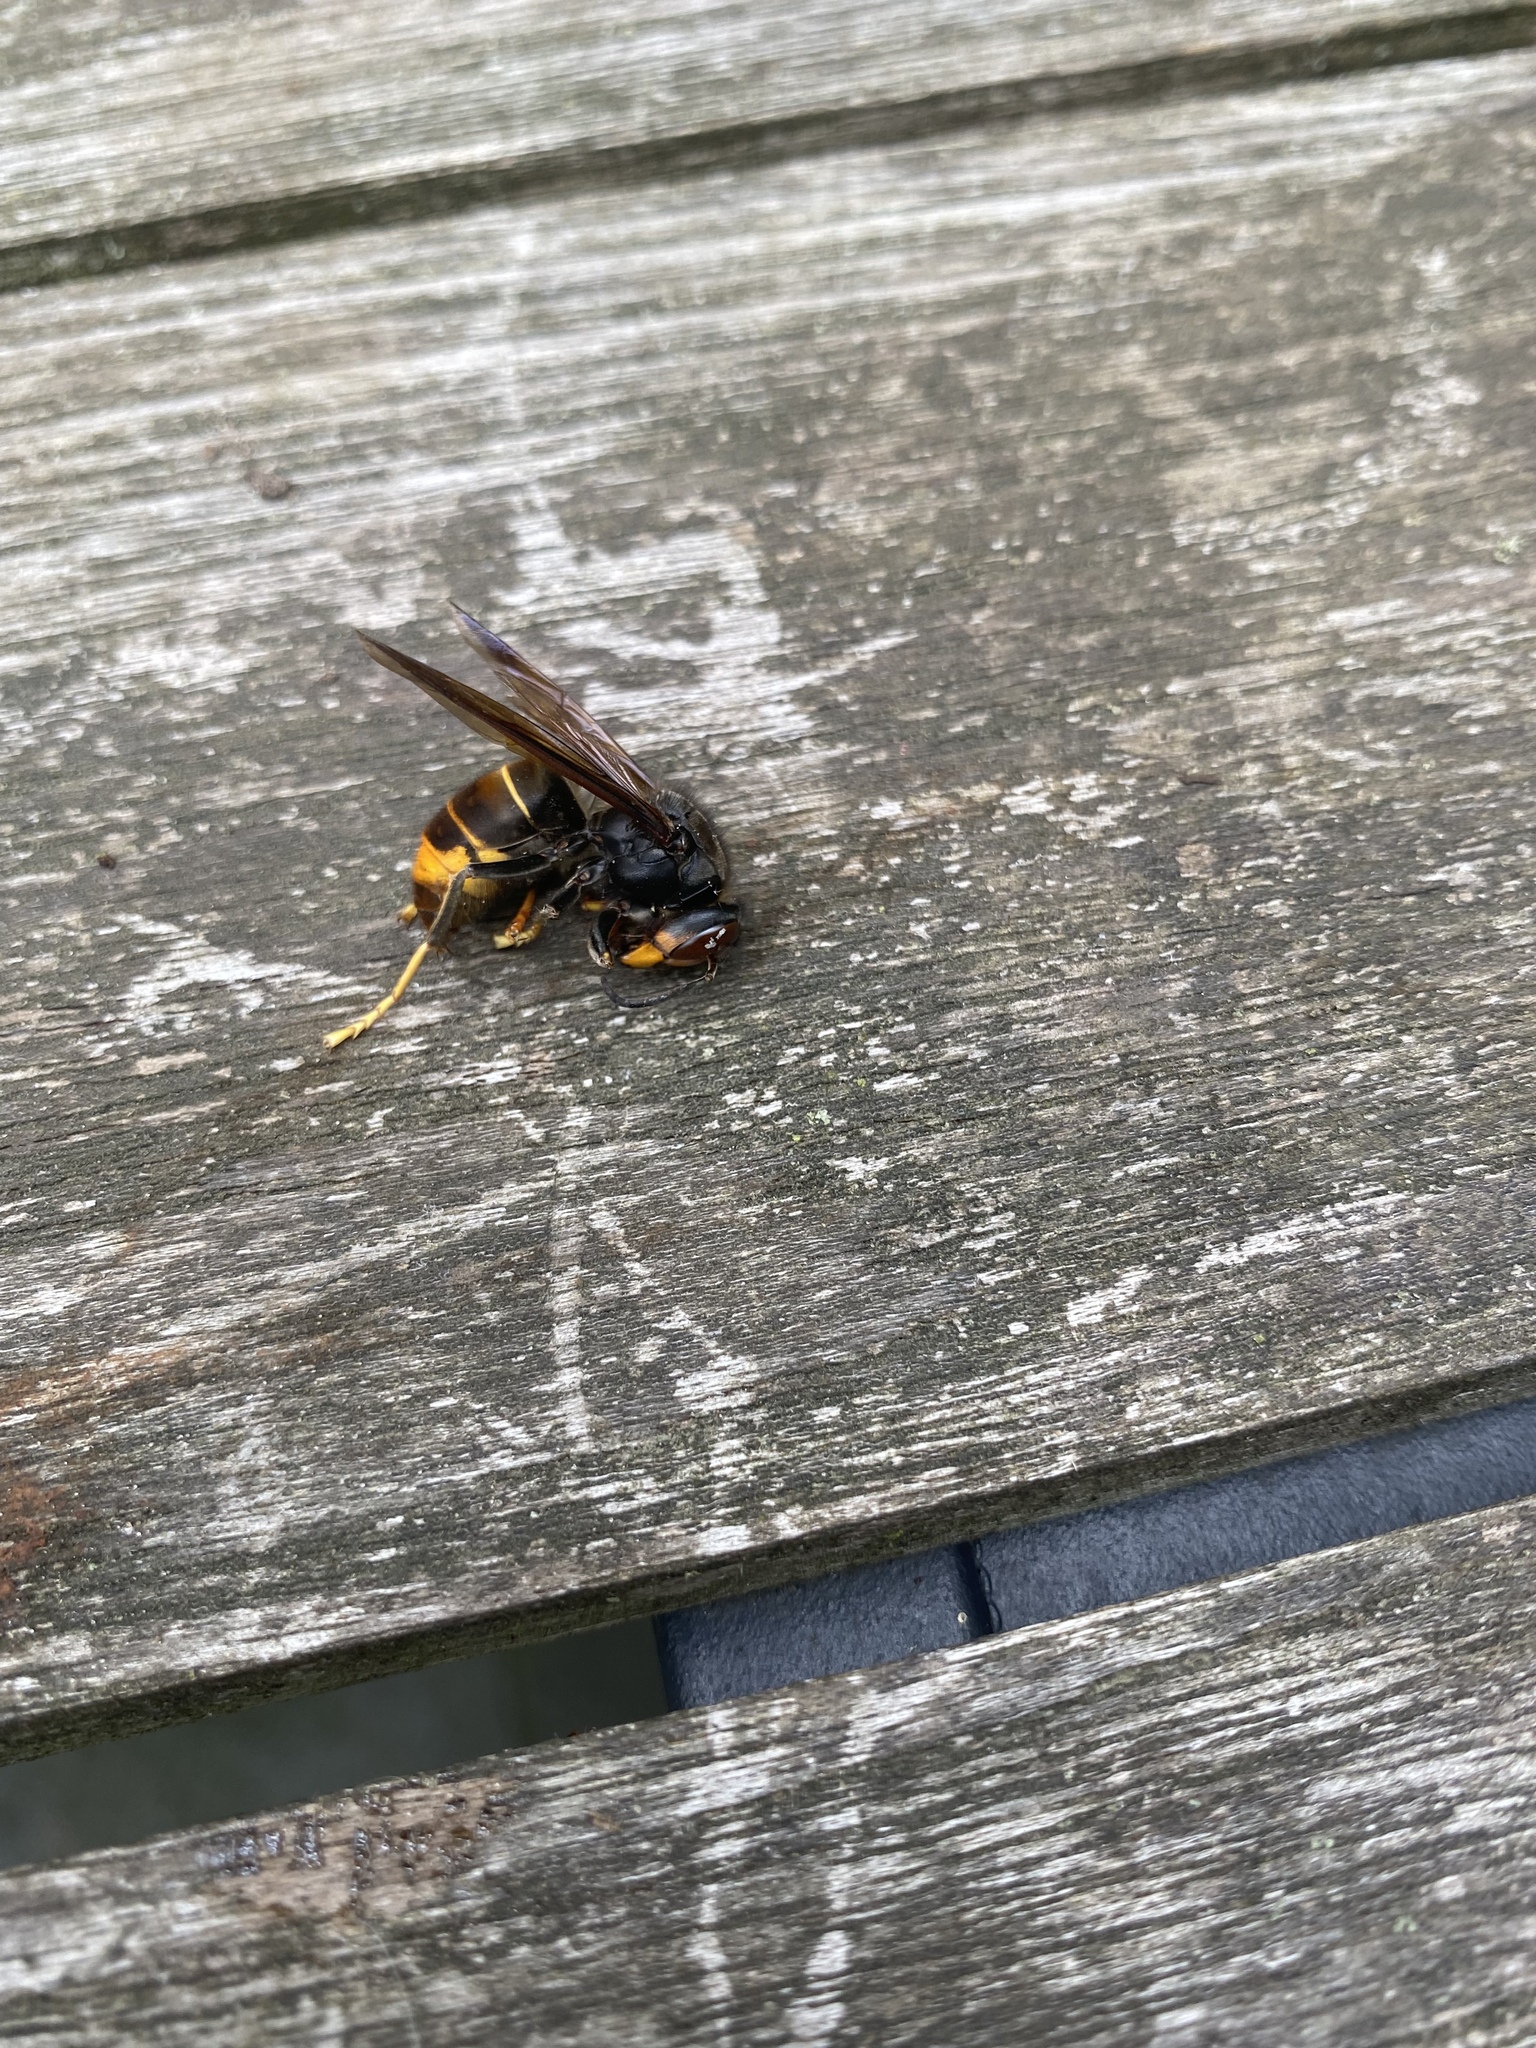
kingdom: Animalia
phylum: Arthropoda
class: Insecta
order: Hymenoptera
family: Vespidae
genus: Vespa
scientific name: Vespa velutina
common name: Asian hornet
